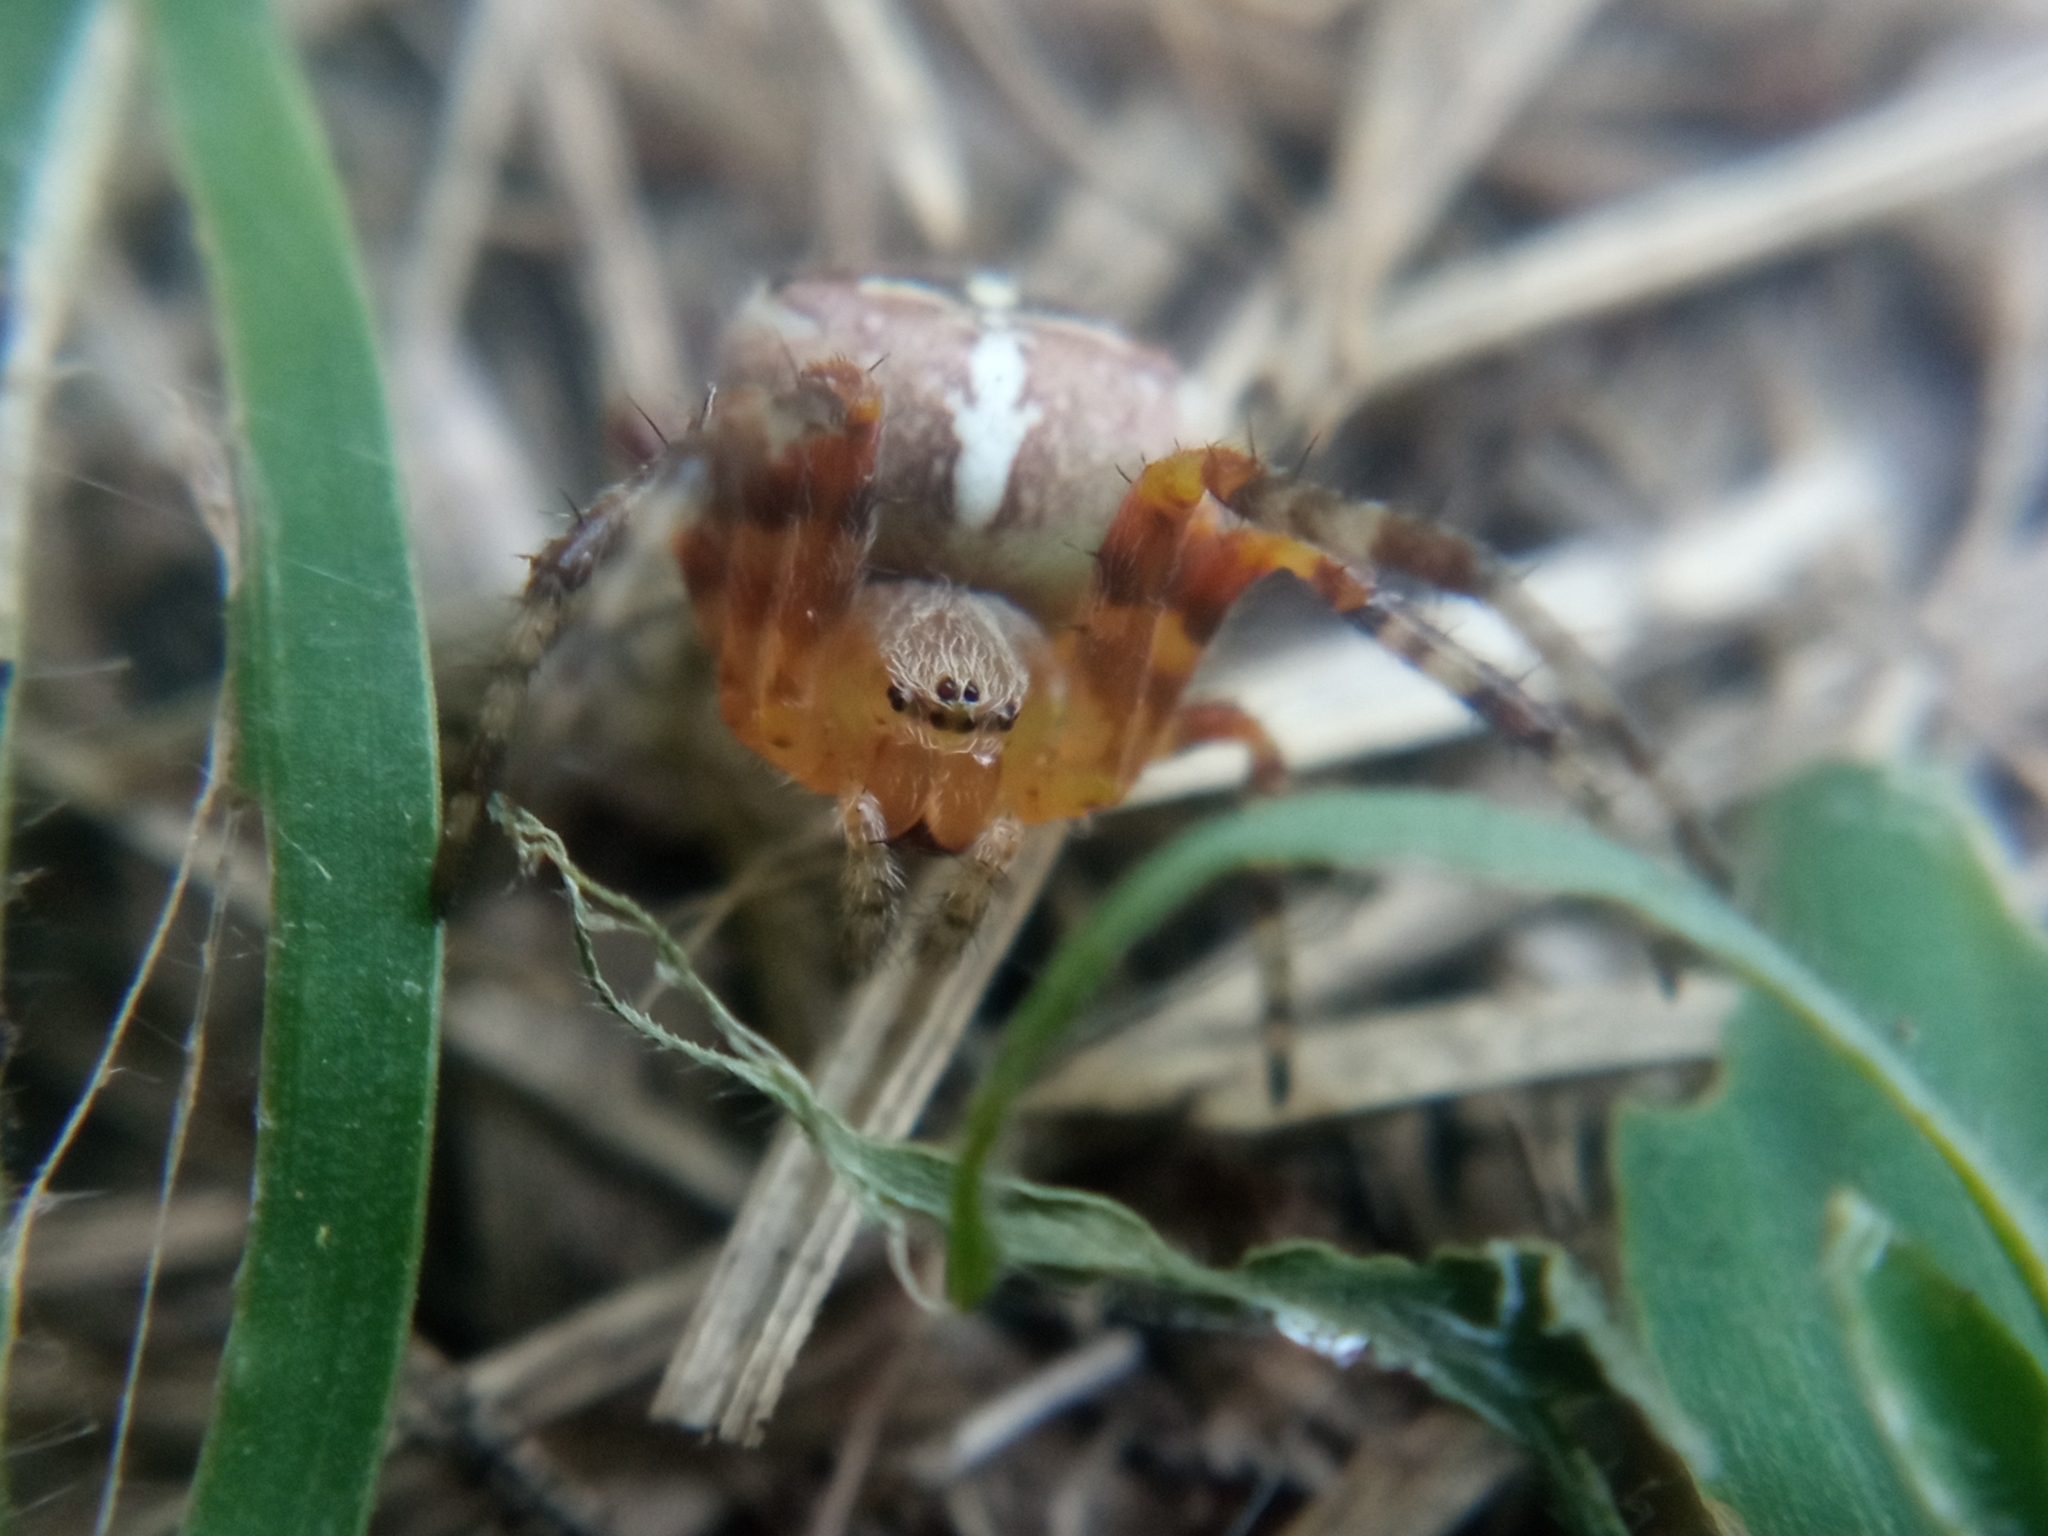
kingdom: Animalia
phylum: Arthropoda
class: Arachnida
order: Araneae
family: Araneidae
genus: Araneus
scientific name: Araneus diadematus
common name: Cross orbweaver
